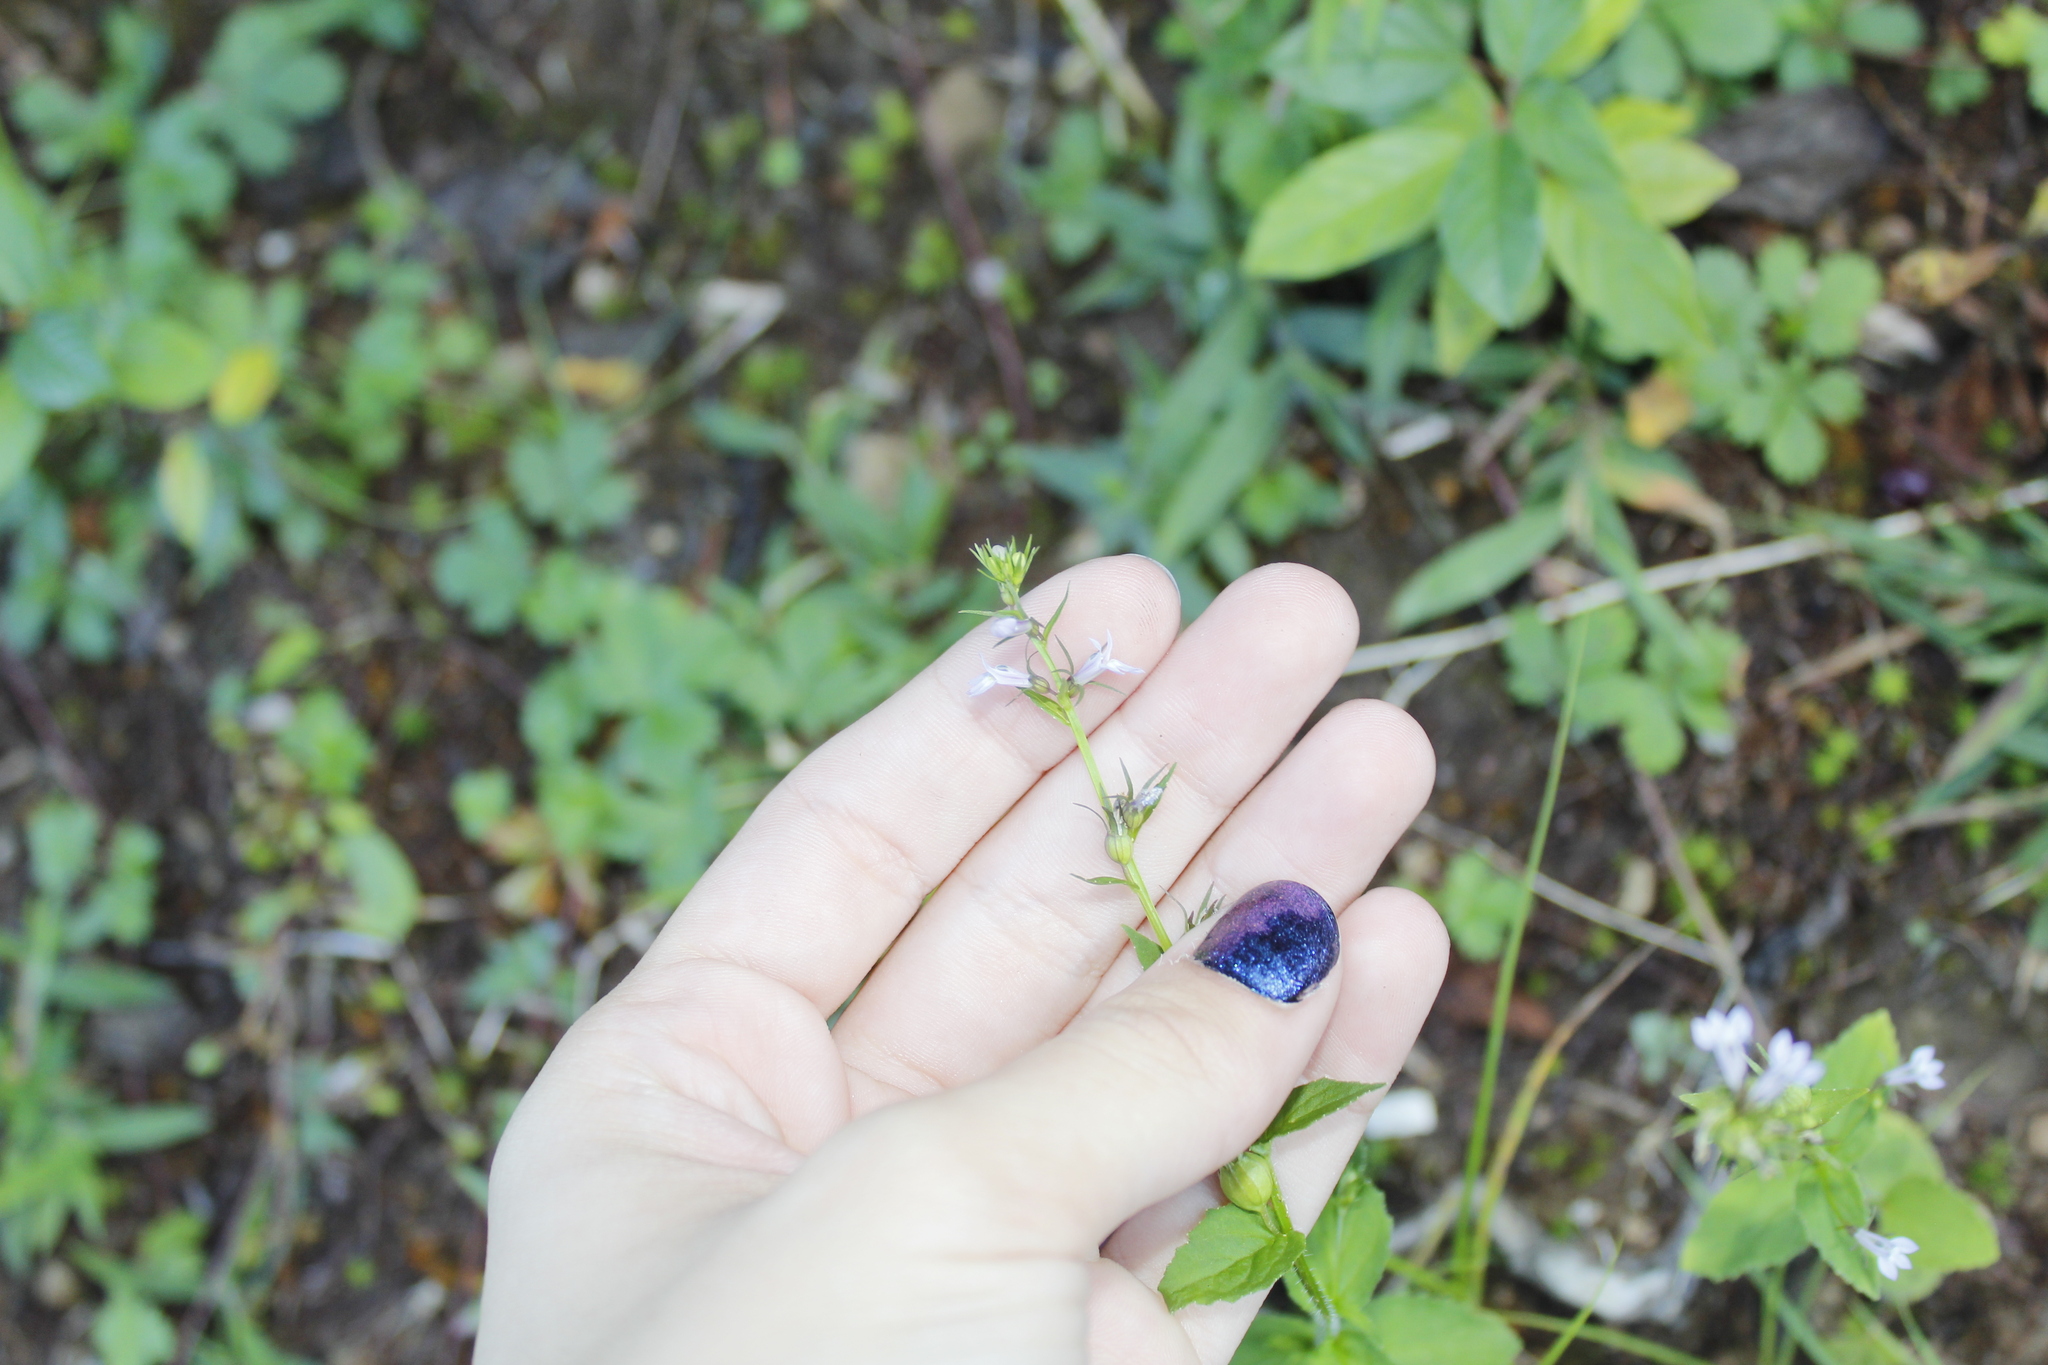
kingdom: Plantae
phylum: Tracheophyta
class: Magnoliopsida
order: Asterales
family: Campanulaceae
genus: Lobelia
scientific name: Lobelia inflata
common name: Indian tobacco
